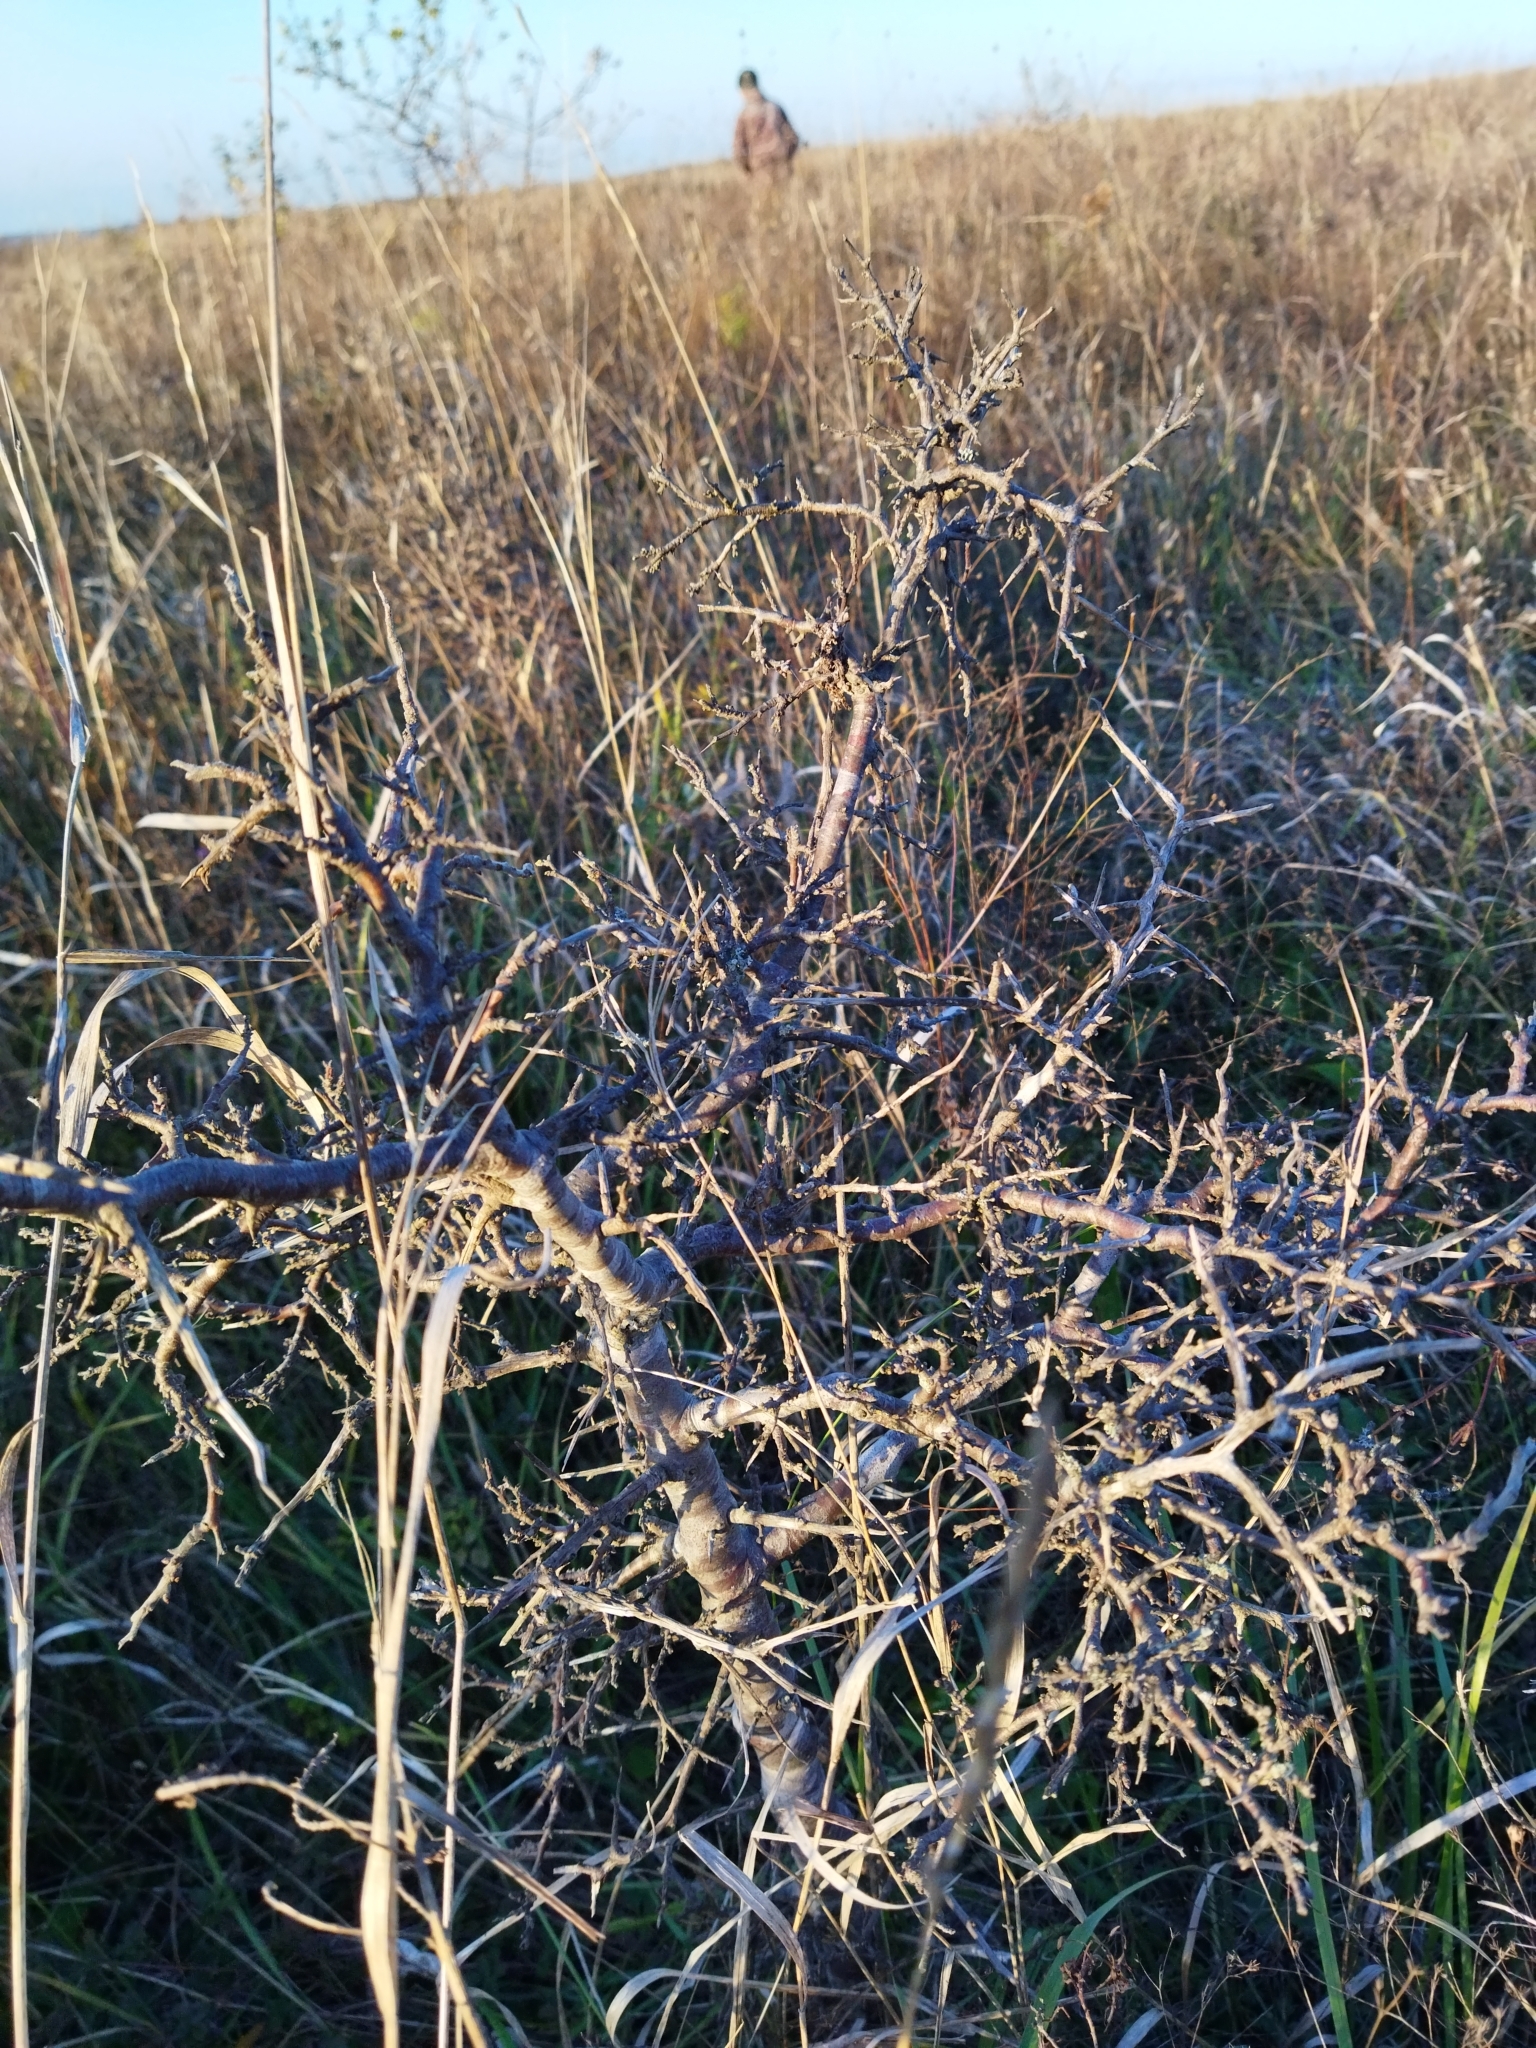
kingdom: Plantae
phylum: Tracheophyta
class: Magnoliopsida
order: Rosales
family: Rosaceae
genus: Prunus
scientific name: Prunus spinosa
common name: Blackthorn
